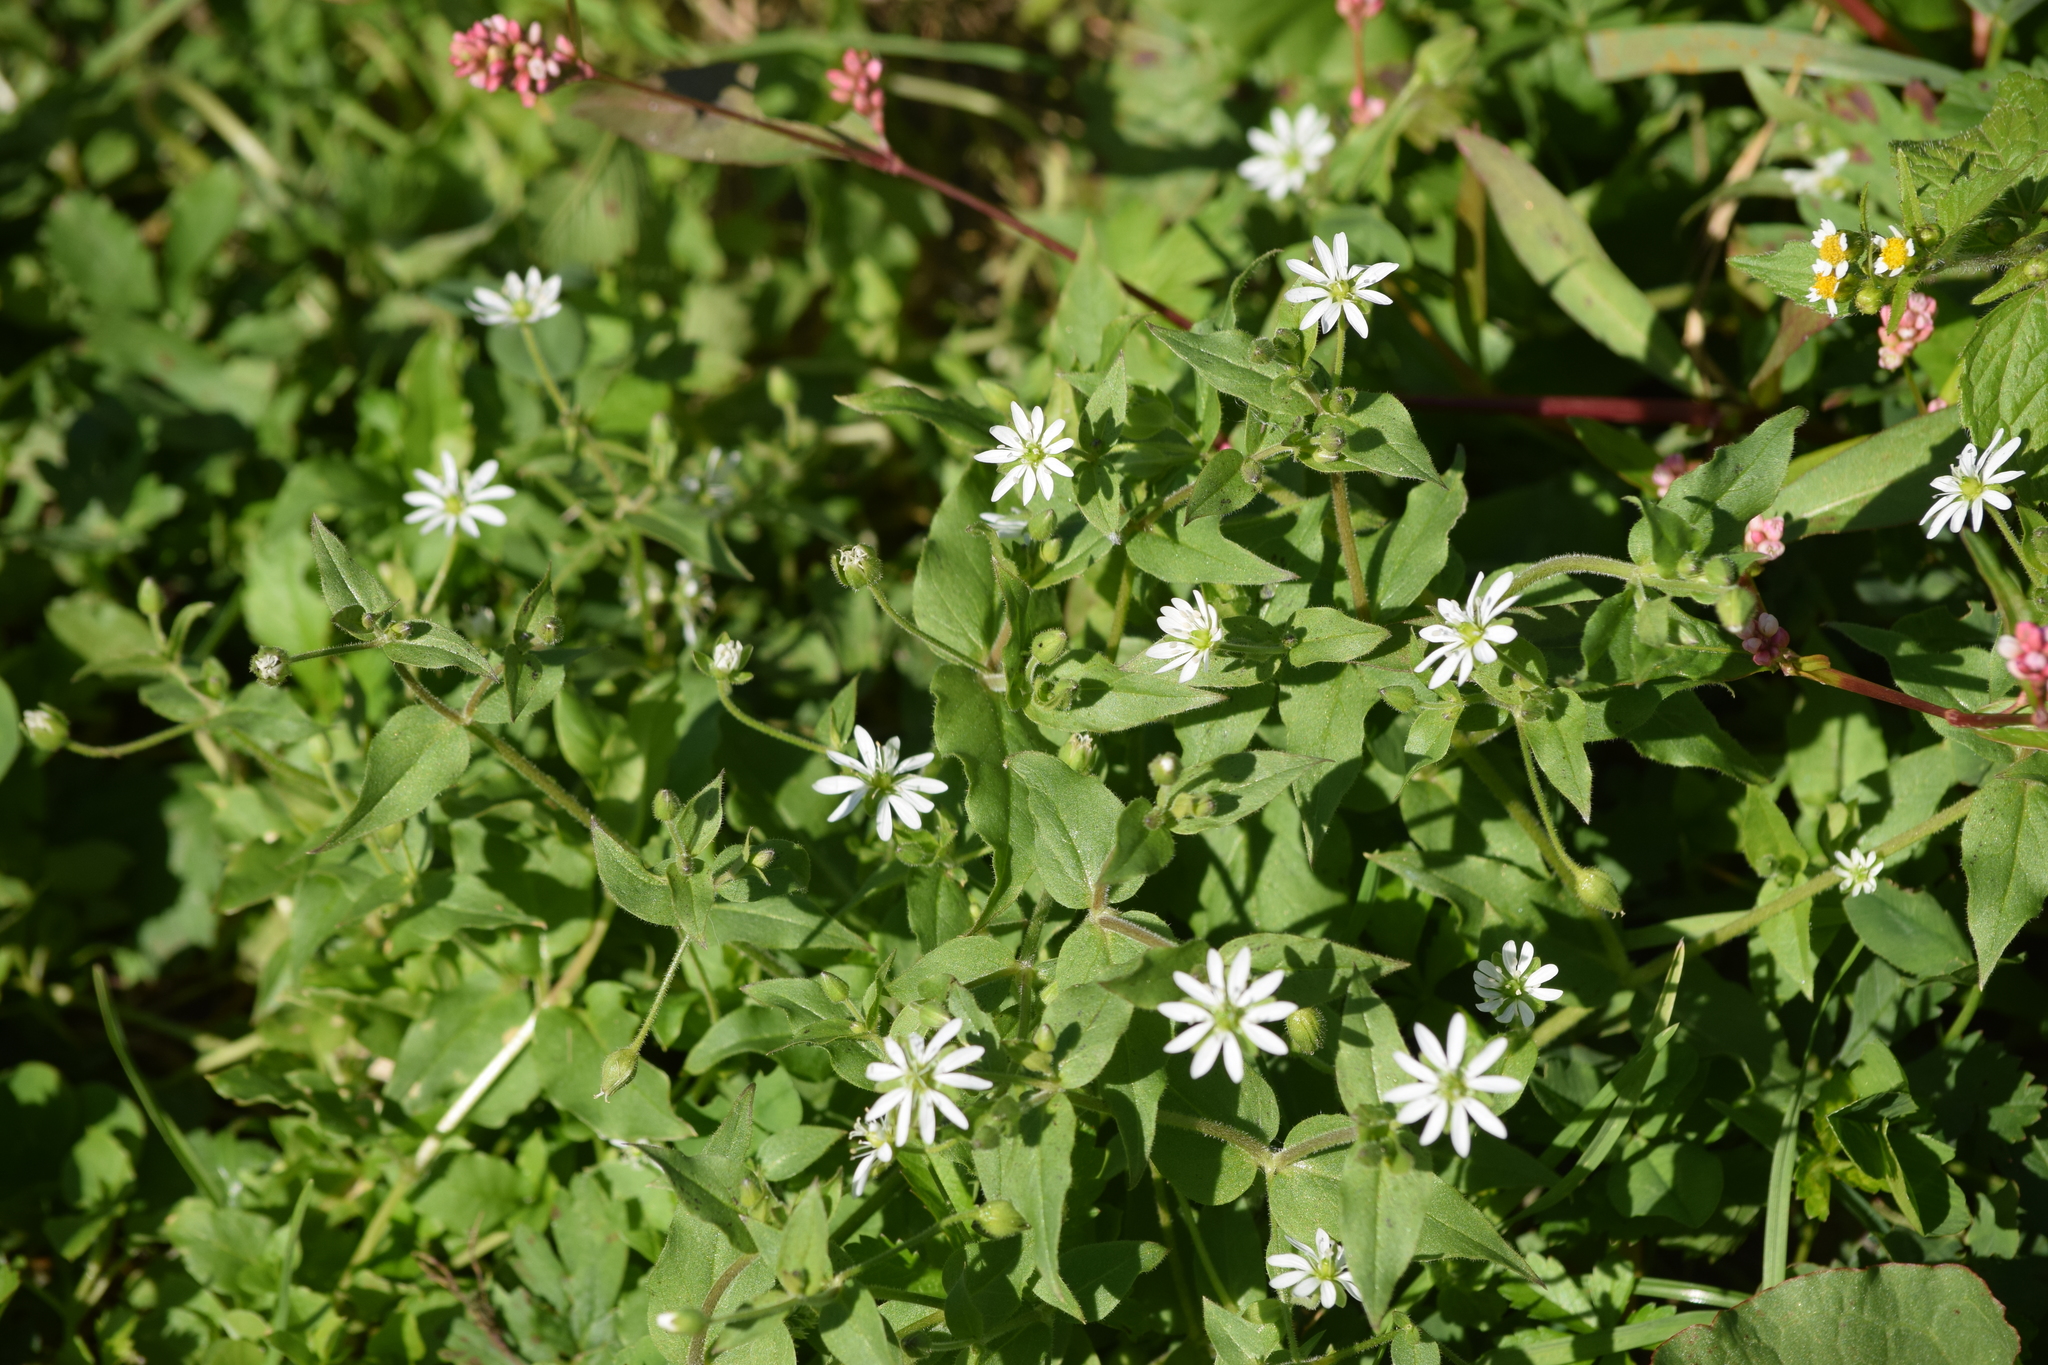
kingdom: Plantae
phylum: Tracheophyta
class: Magnoliopsida
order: Caryophyllales
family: Caryophyllaceae
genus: Stellaria
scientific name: Stellaria aquatica
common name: Water chickweed
